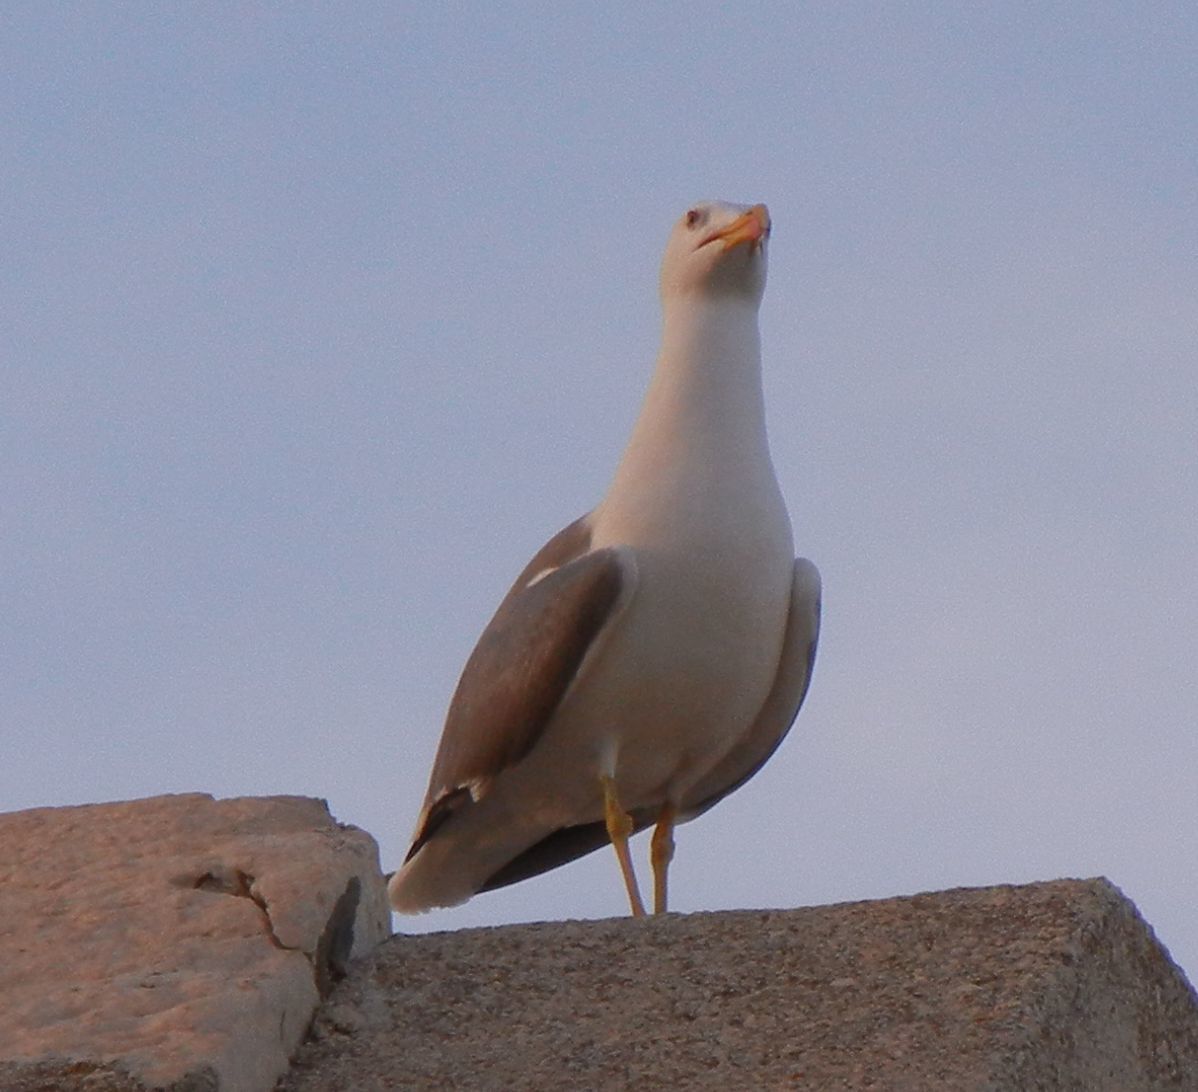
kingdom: Animalia
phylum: Chordata
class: Aves
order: Charadriiformes
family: Laridae
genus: Larus
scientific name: Larus michahellis
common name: Yellow-legged gull
